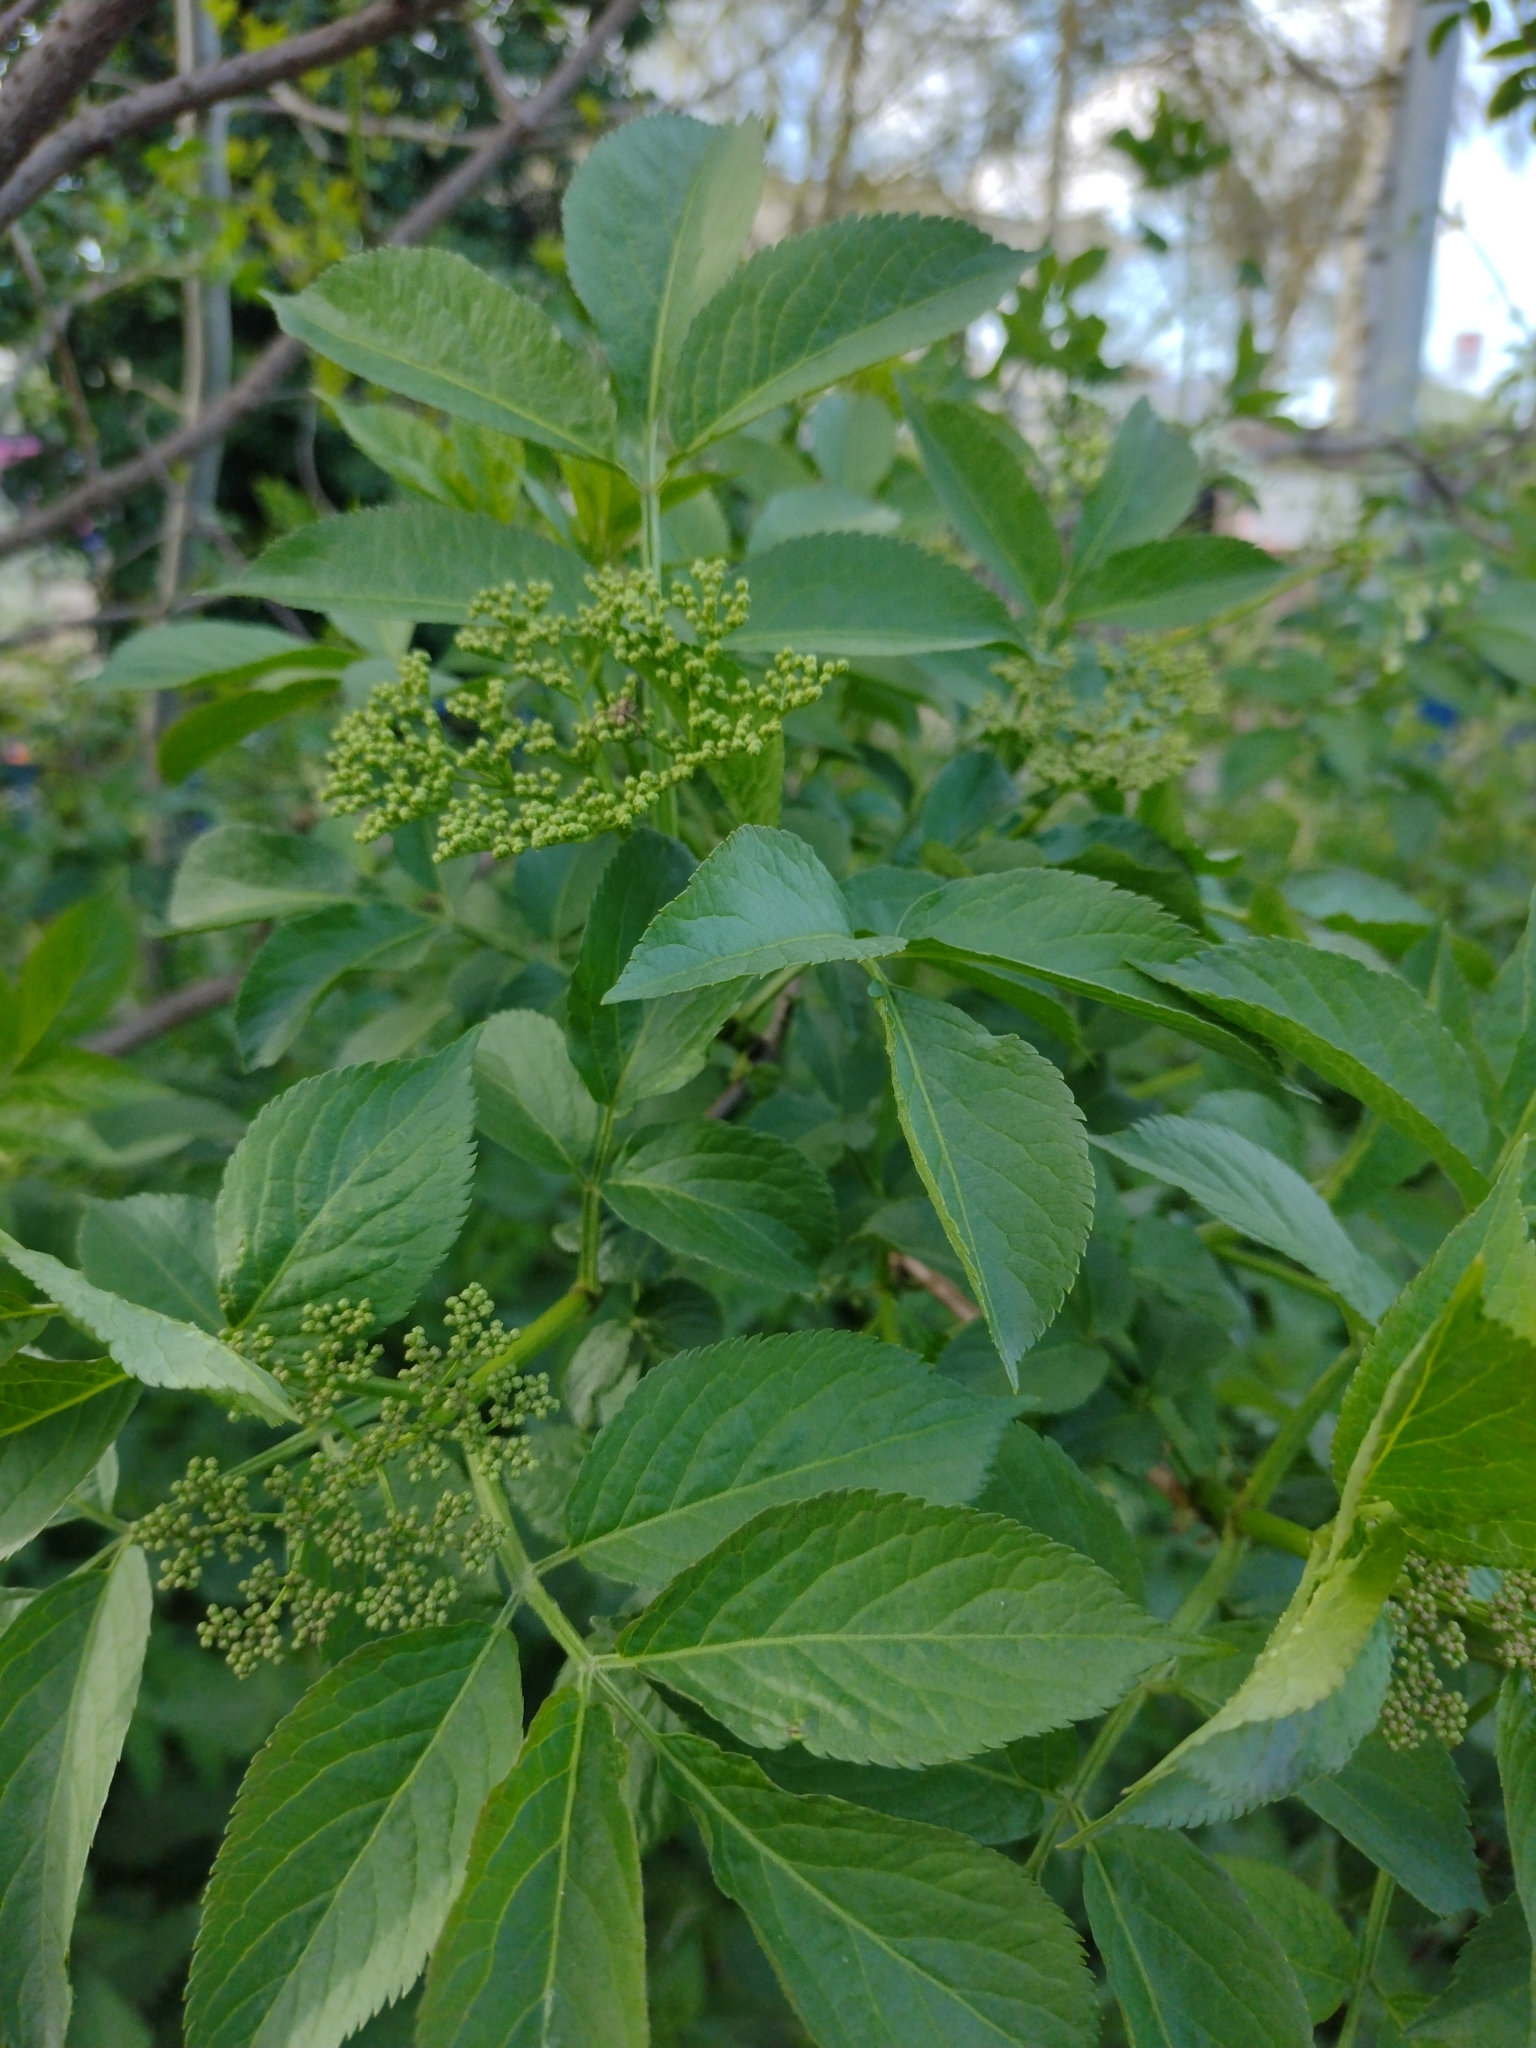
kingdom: Plantae
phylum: Tracheophyta
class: Magnoliopsida
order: Dipsacales
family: Viburnaceae
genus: Sambucus
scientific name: Sambucus nigra
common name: Elder
